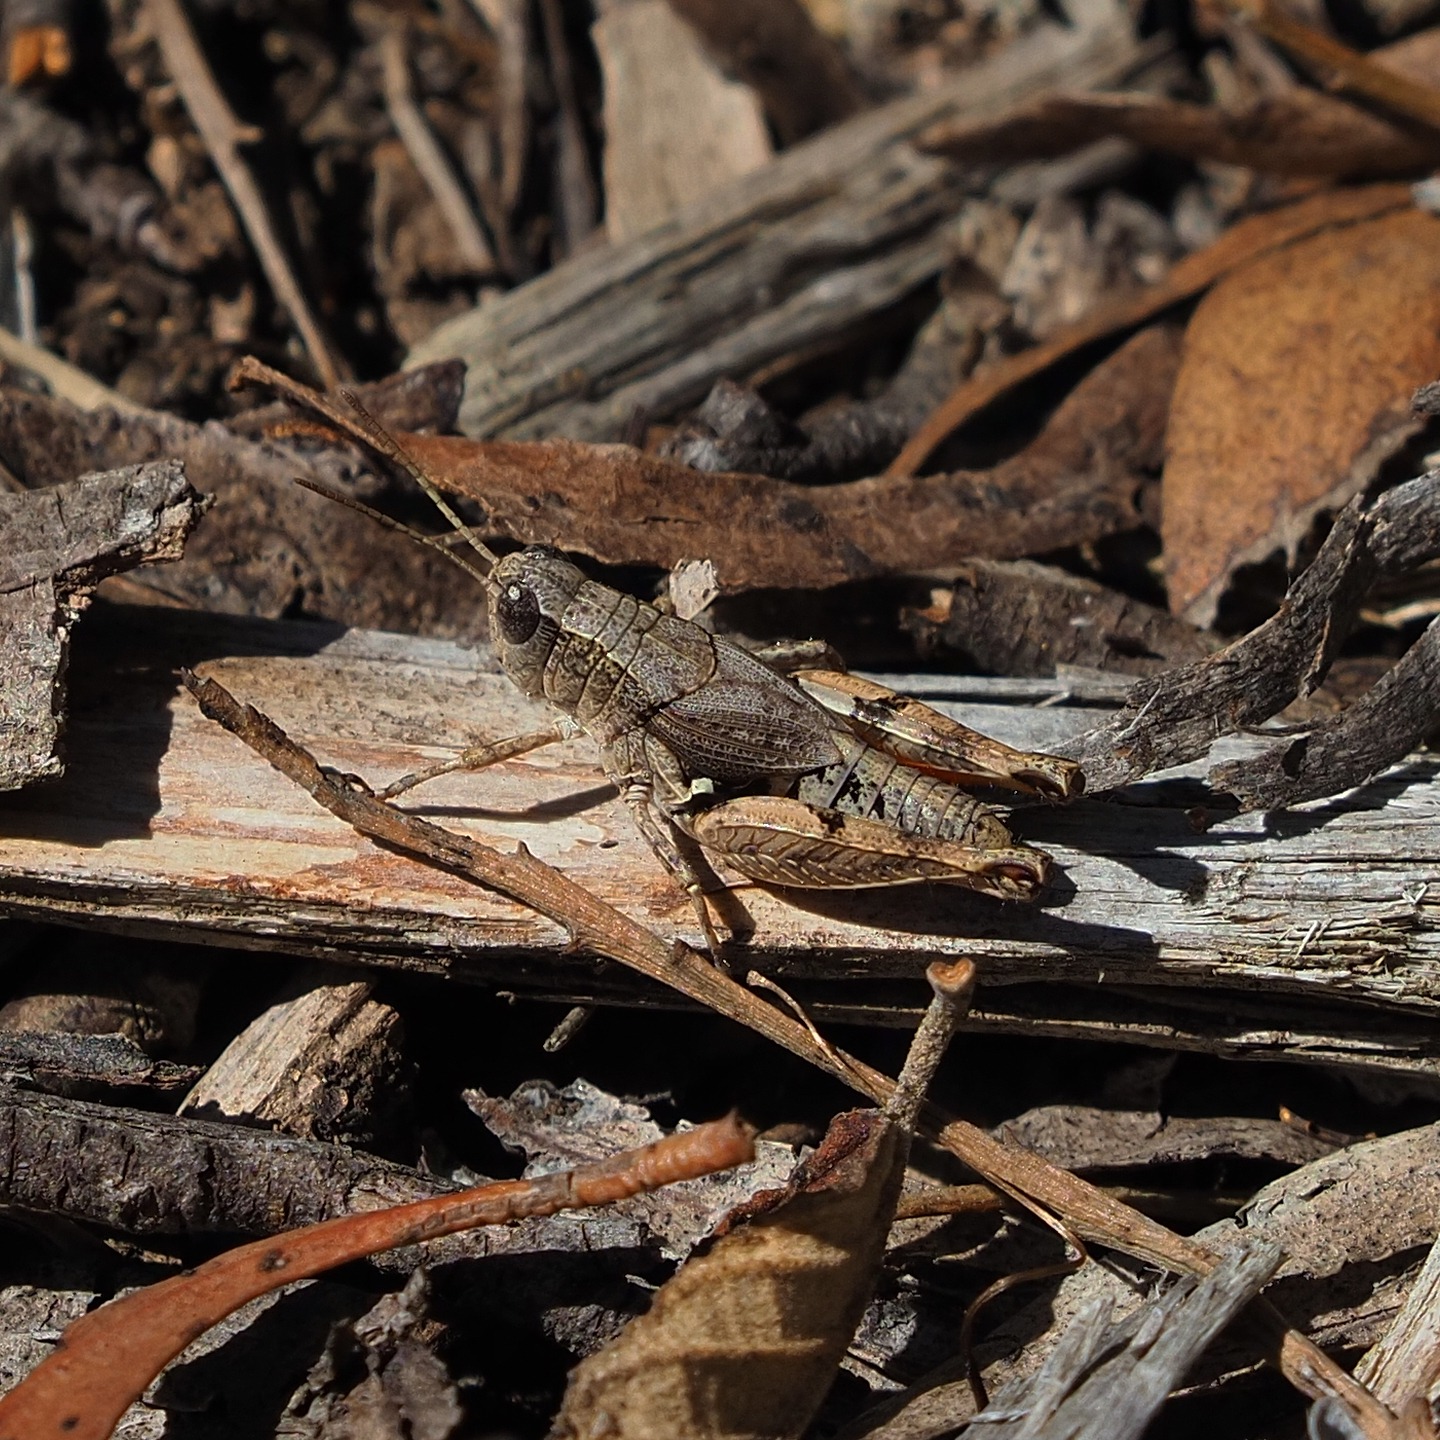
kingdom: Animalia
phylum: Arthropoda
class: Insecta
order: Orthoptera
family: Acrididae
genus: Phaulacridium
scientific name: Phaulacridium vittatum
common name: Wingless grasshopper
